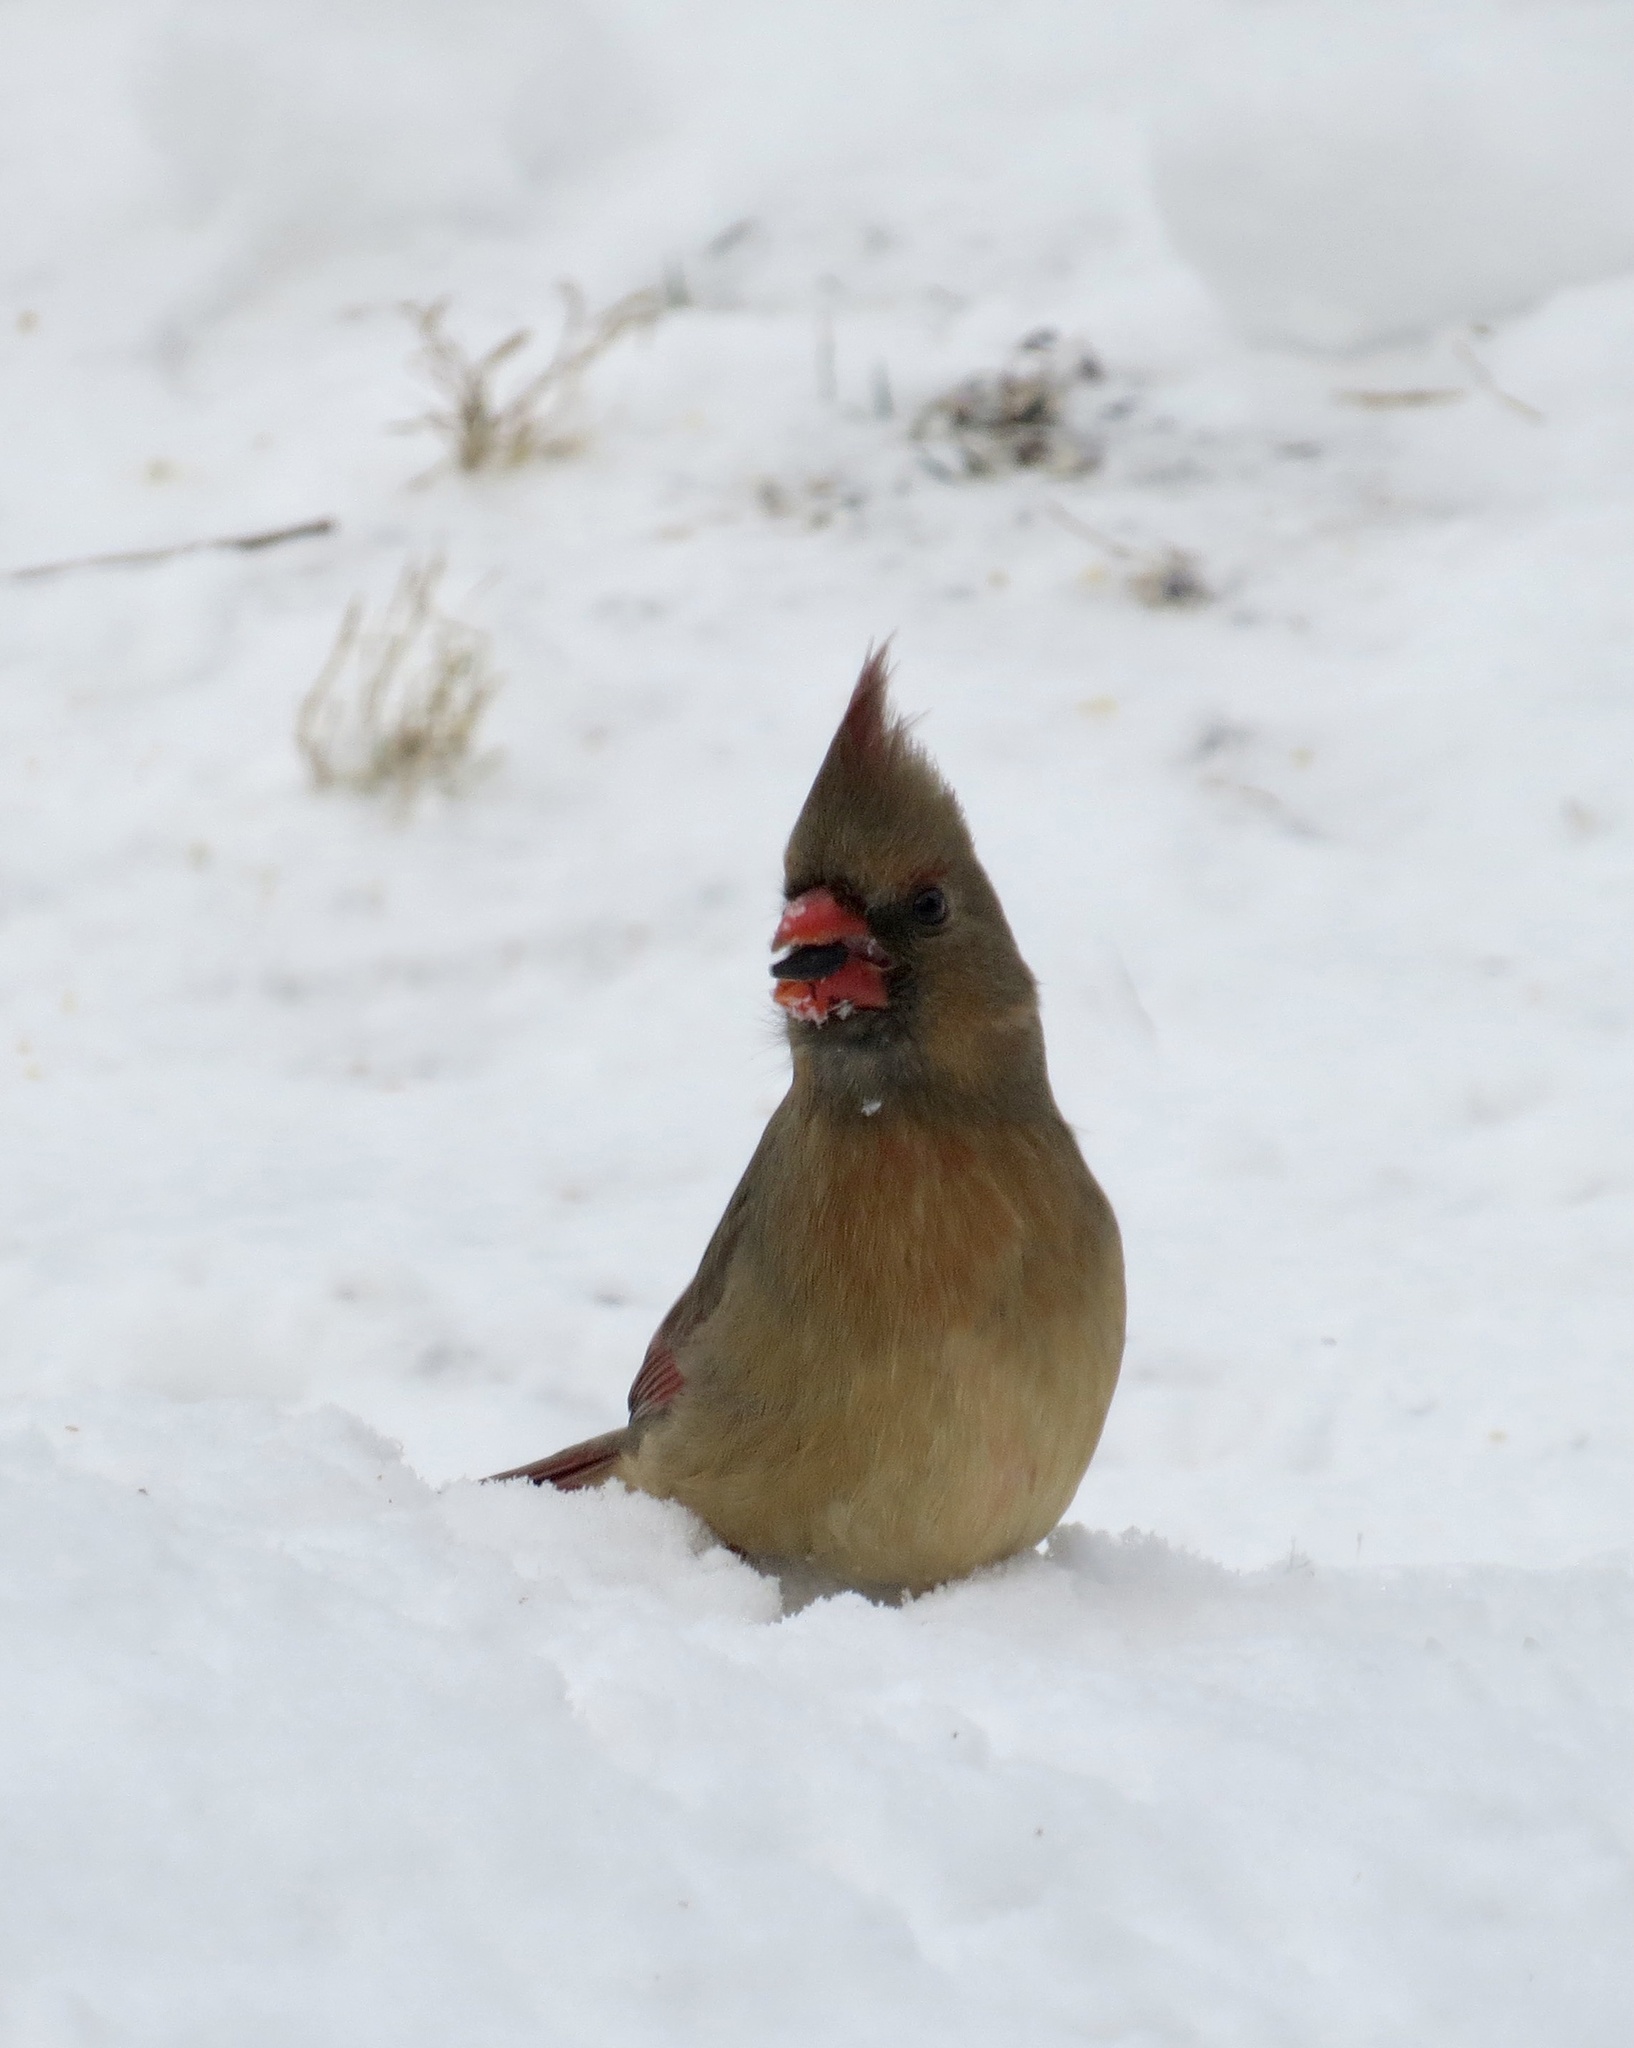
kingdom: Animalia
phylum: Chordata
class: Aves
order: Passeriformes
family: Cardinalidae
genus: Cardinalis
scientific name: Cardinalis cardinalis
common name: Northern cardinal
